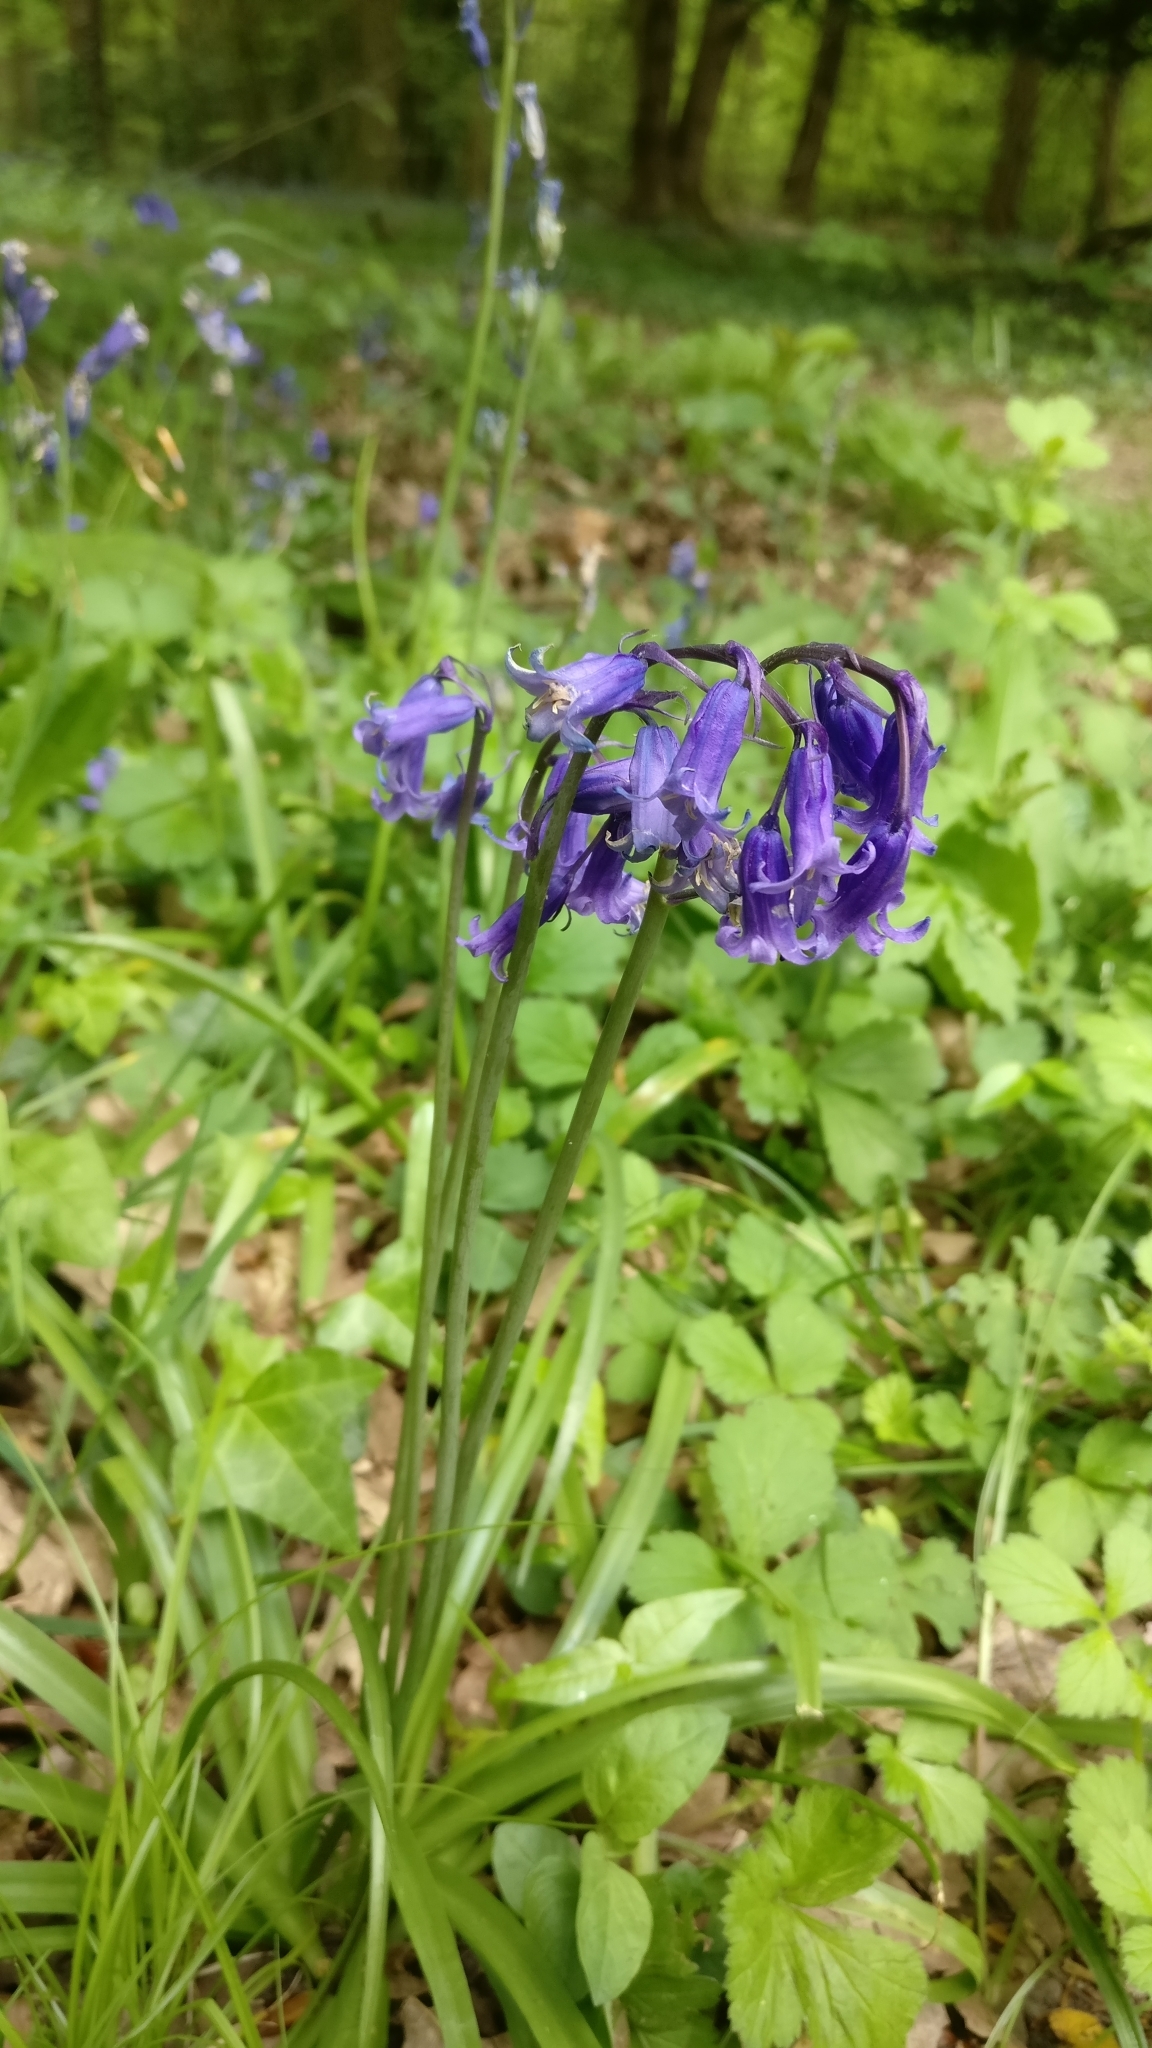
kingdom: Plantae
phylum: Tracheophyta
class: Liliopsida
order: Asparagales
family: Asparagaceae
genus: Hyacinthoides
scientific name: Hyacinthoides non-scripta
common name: Bluebell
